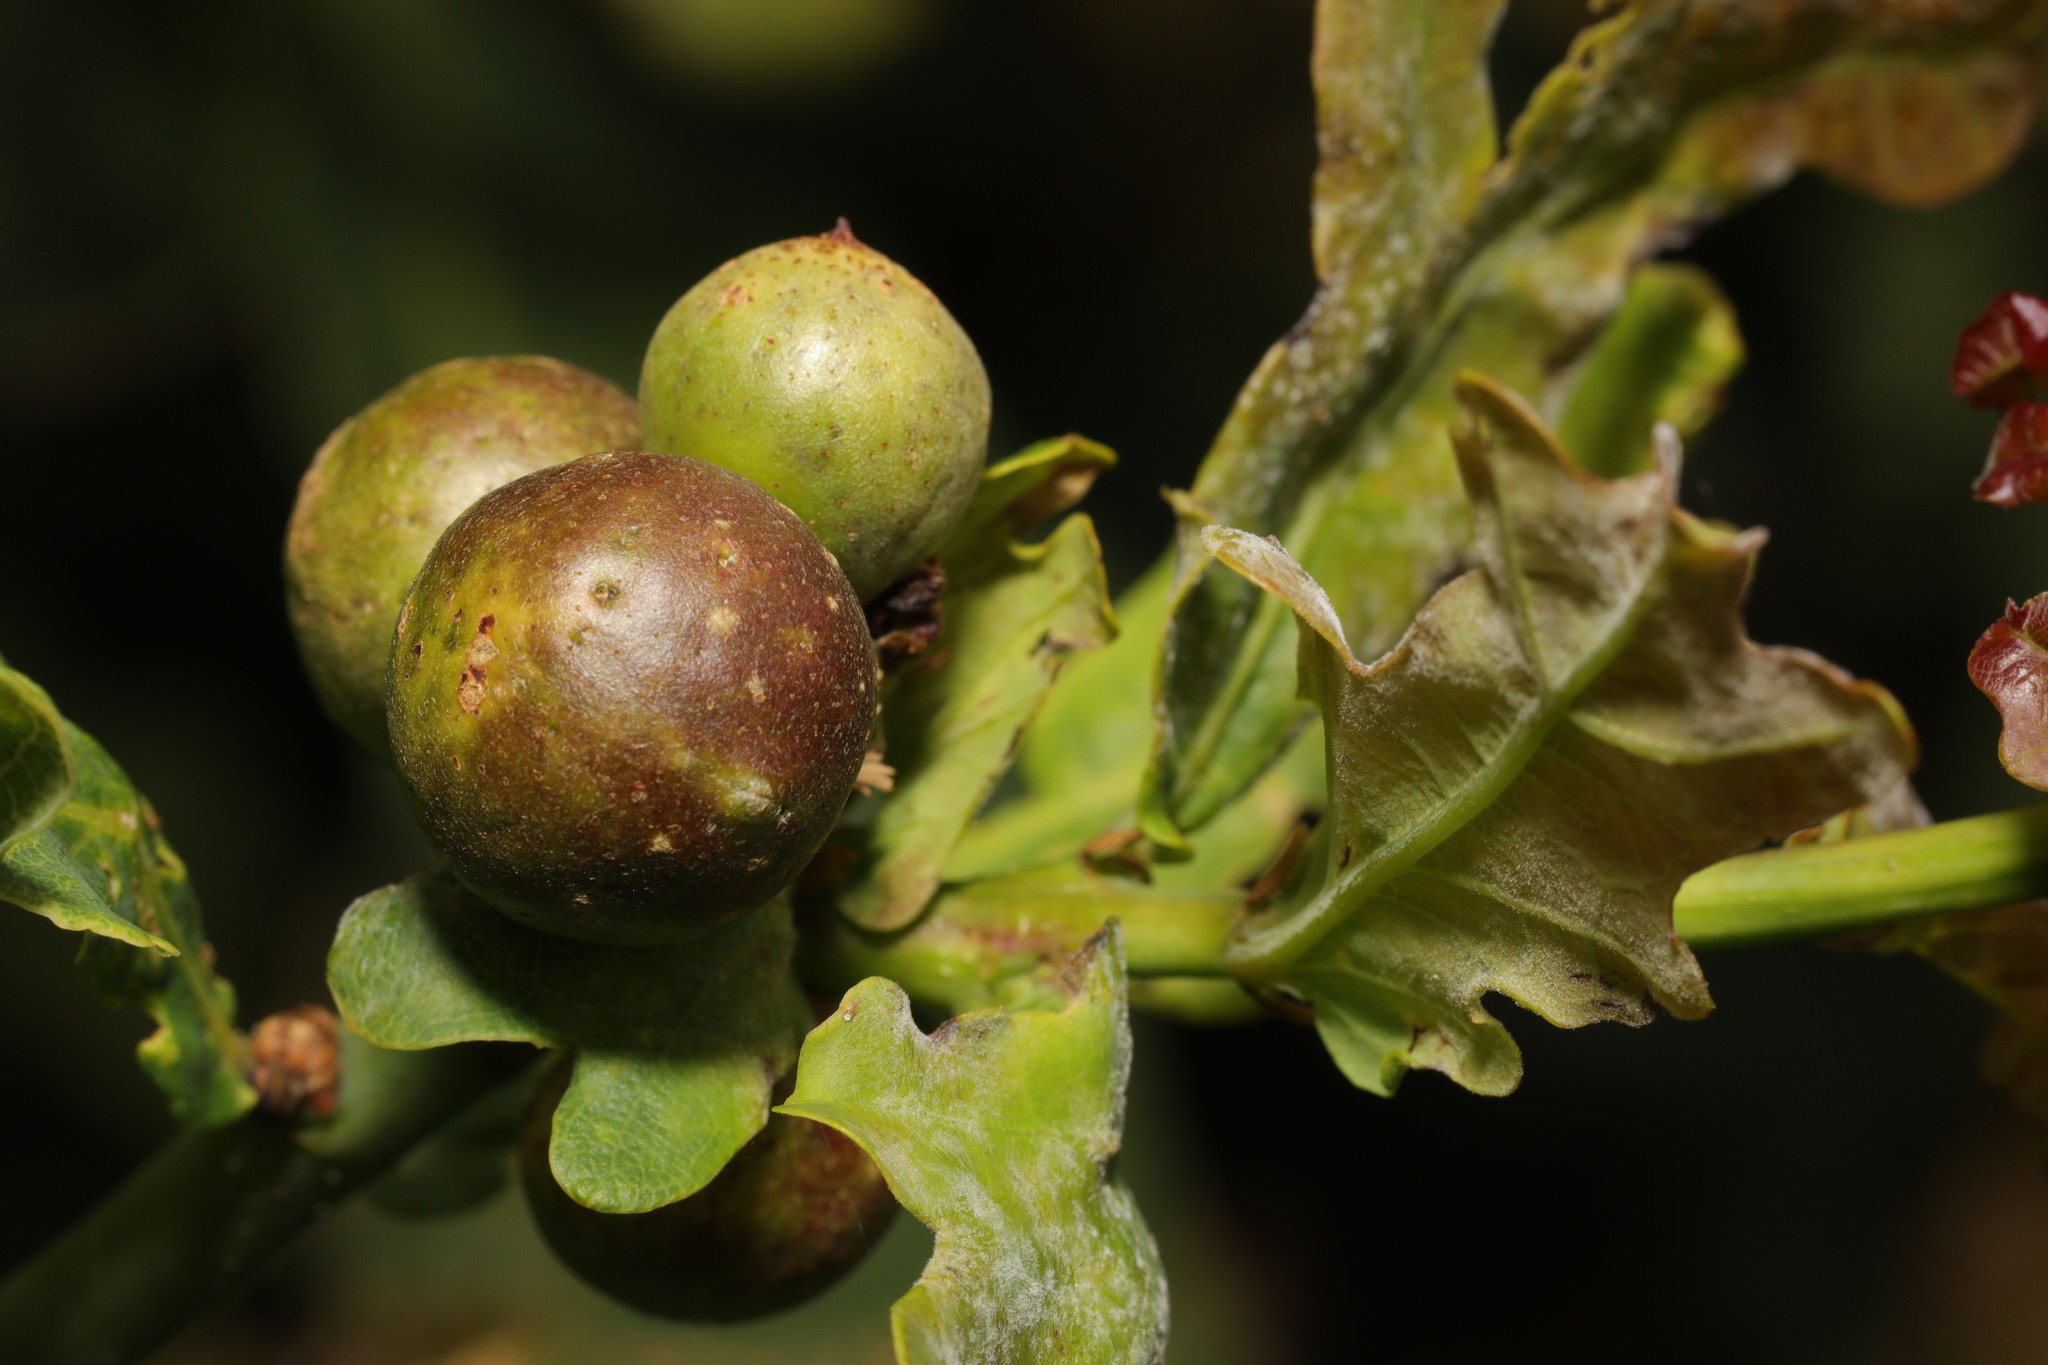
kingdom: Animalia
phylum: Arthropoda
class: Insecta
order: Hymenoptera
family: Cynipidae
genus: Andricus
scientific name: Andricus kollari
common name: Marble gall
